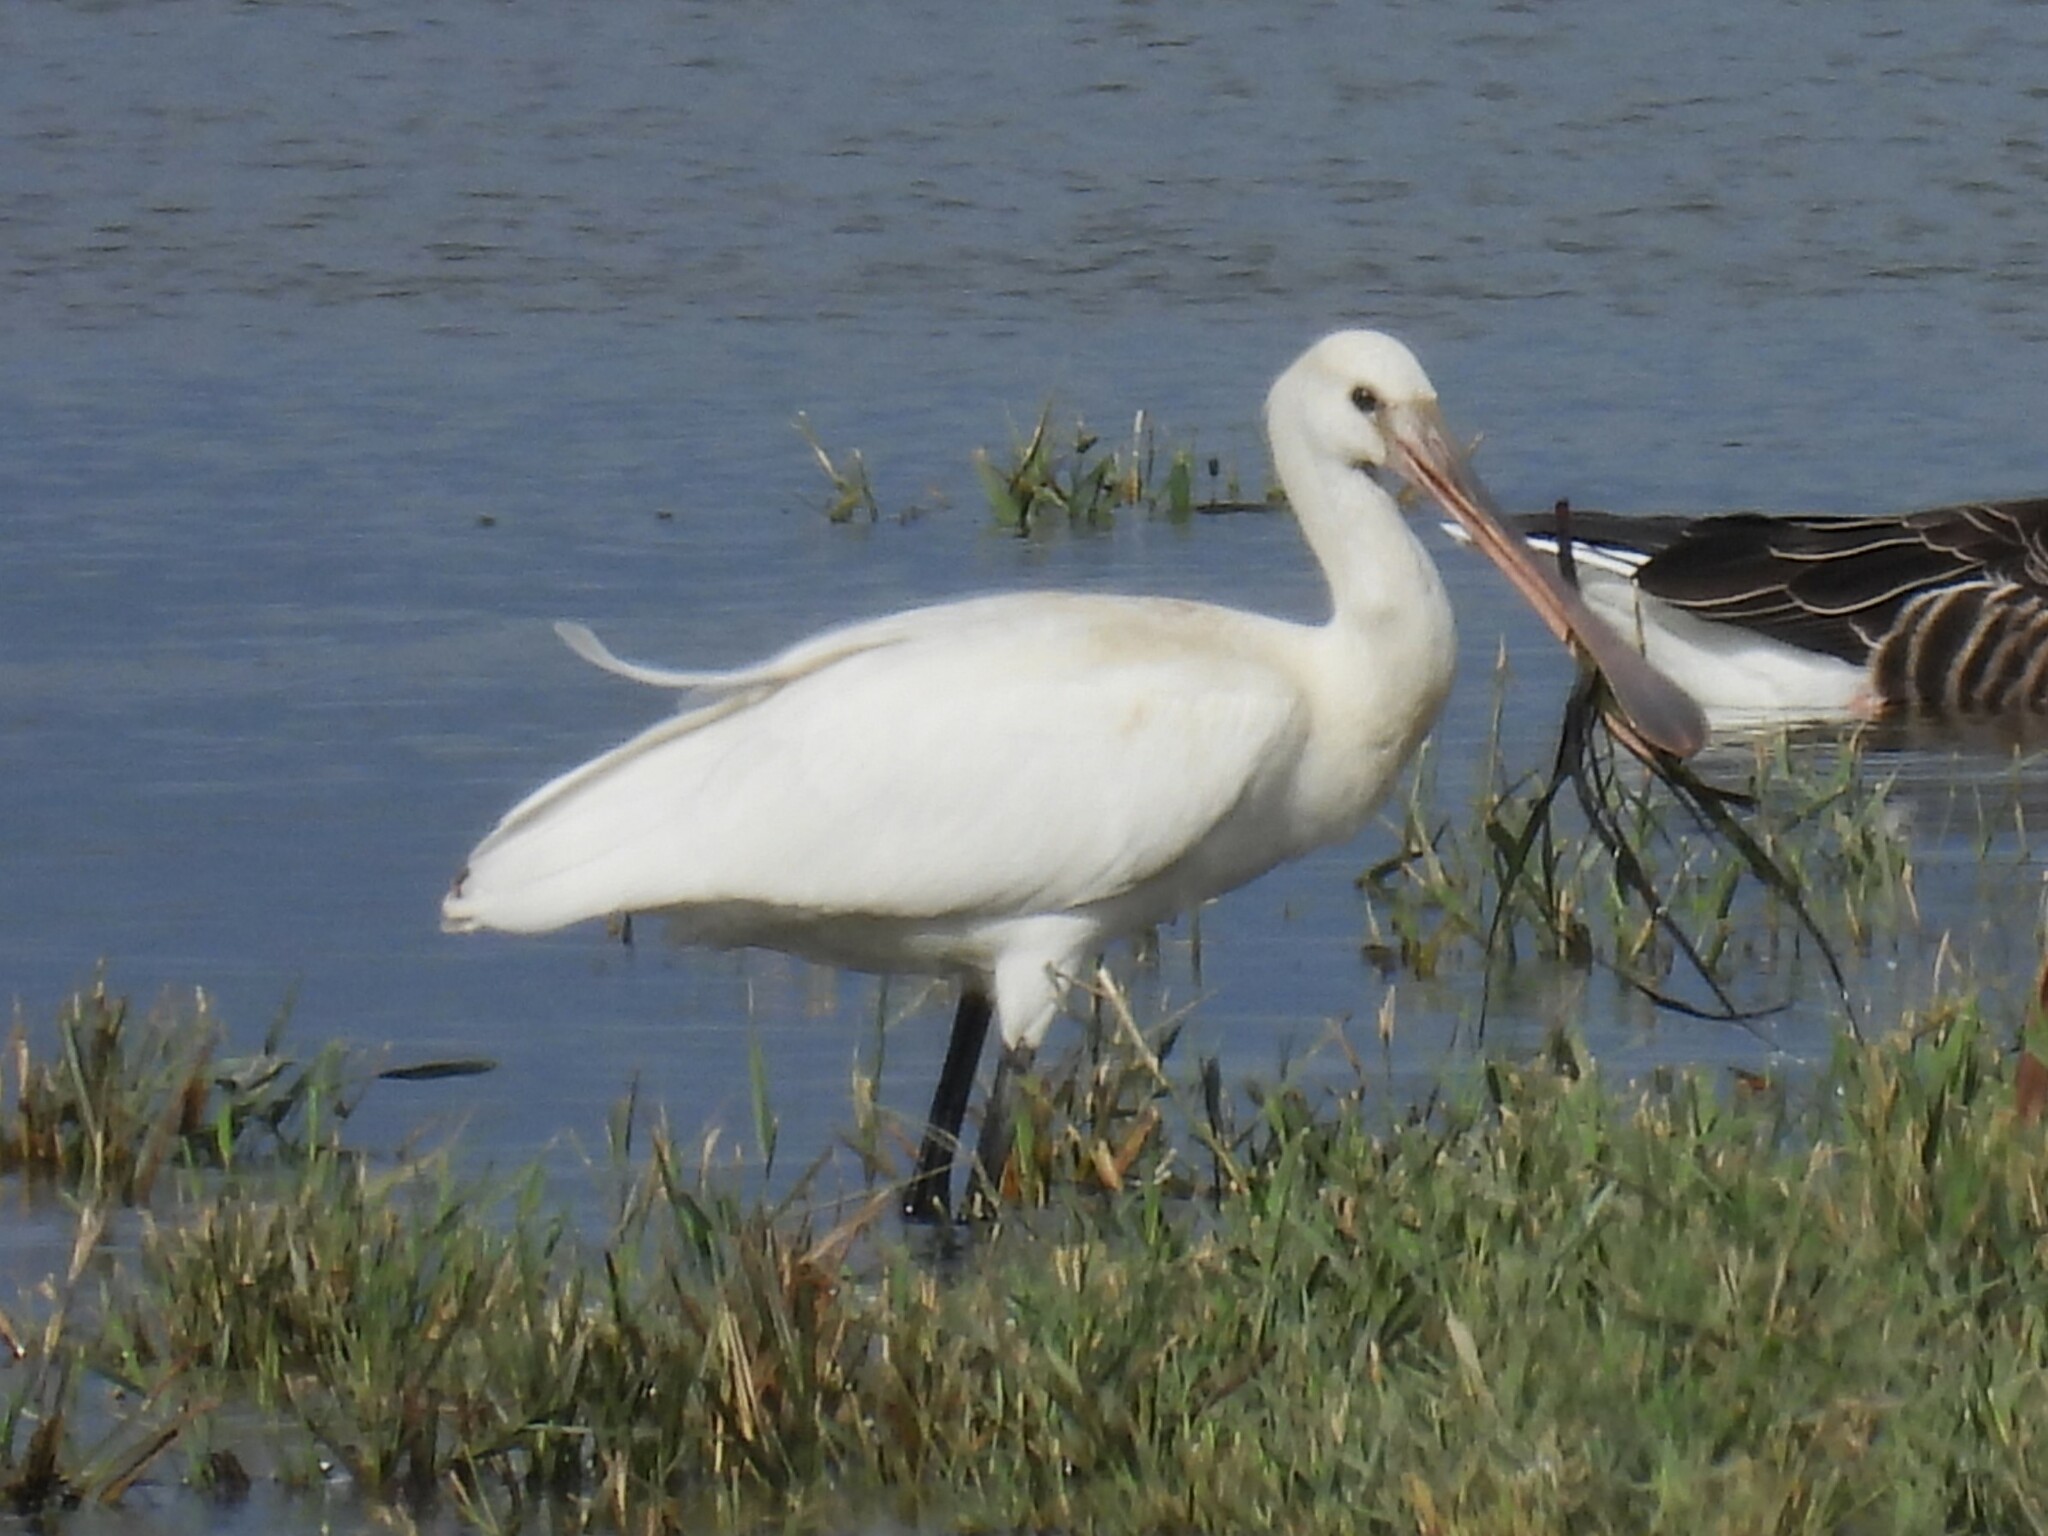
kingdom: Animalia
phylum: Chordata
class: Aves
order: Pelecaniformes
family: Threskiornithidae
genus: Platalea
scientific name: Platalea leucorodia
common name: Eurasian spoonbill
